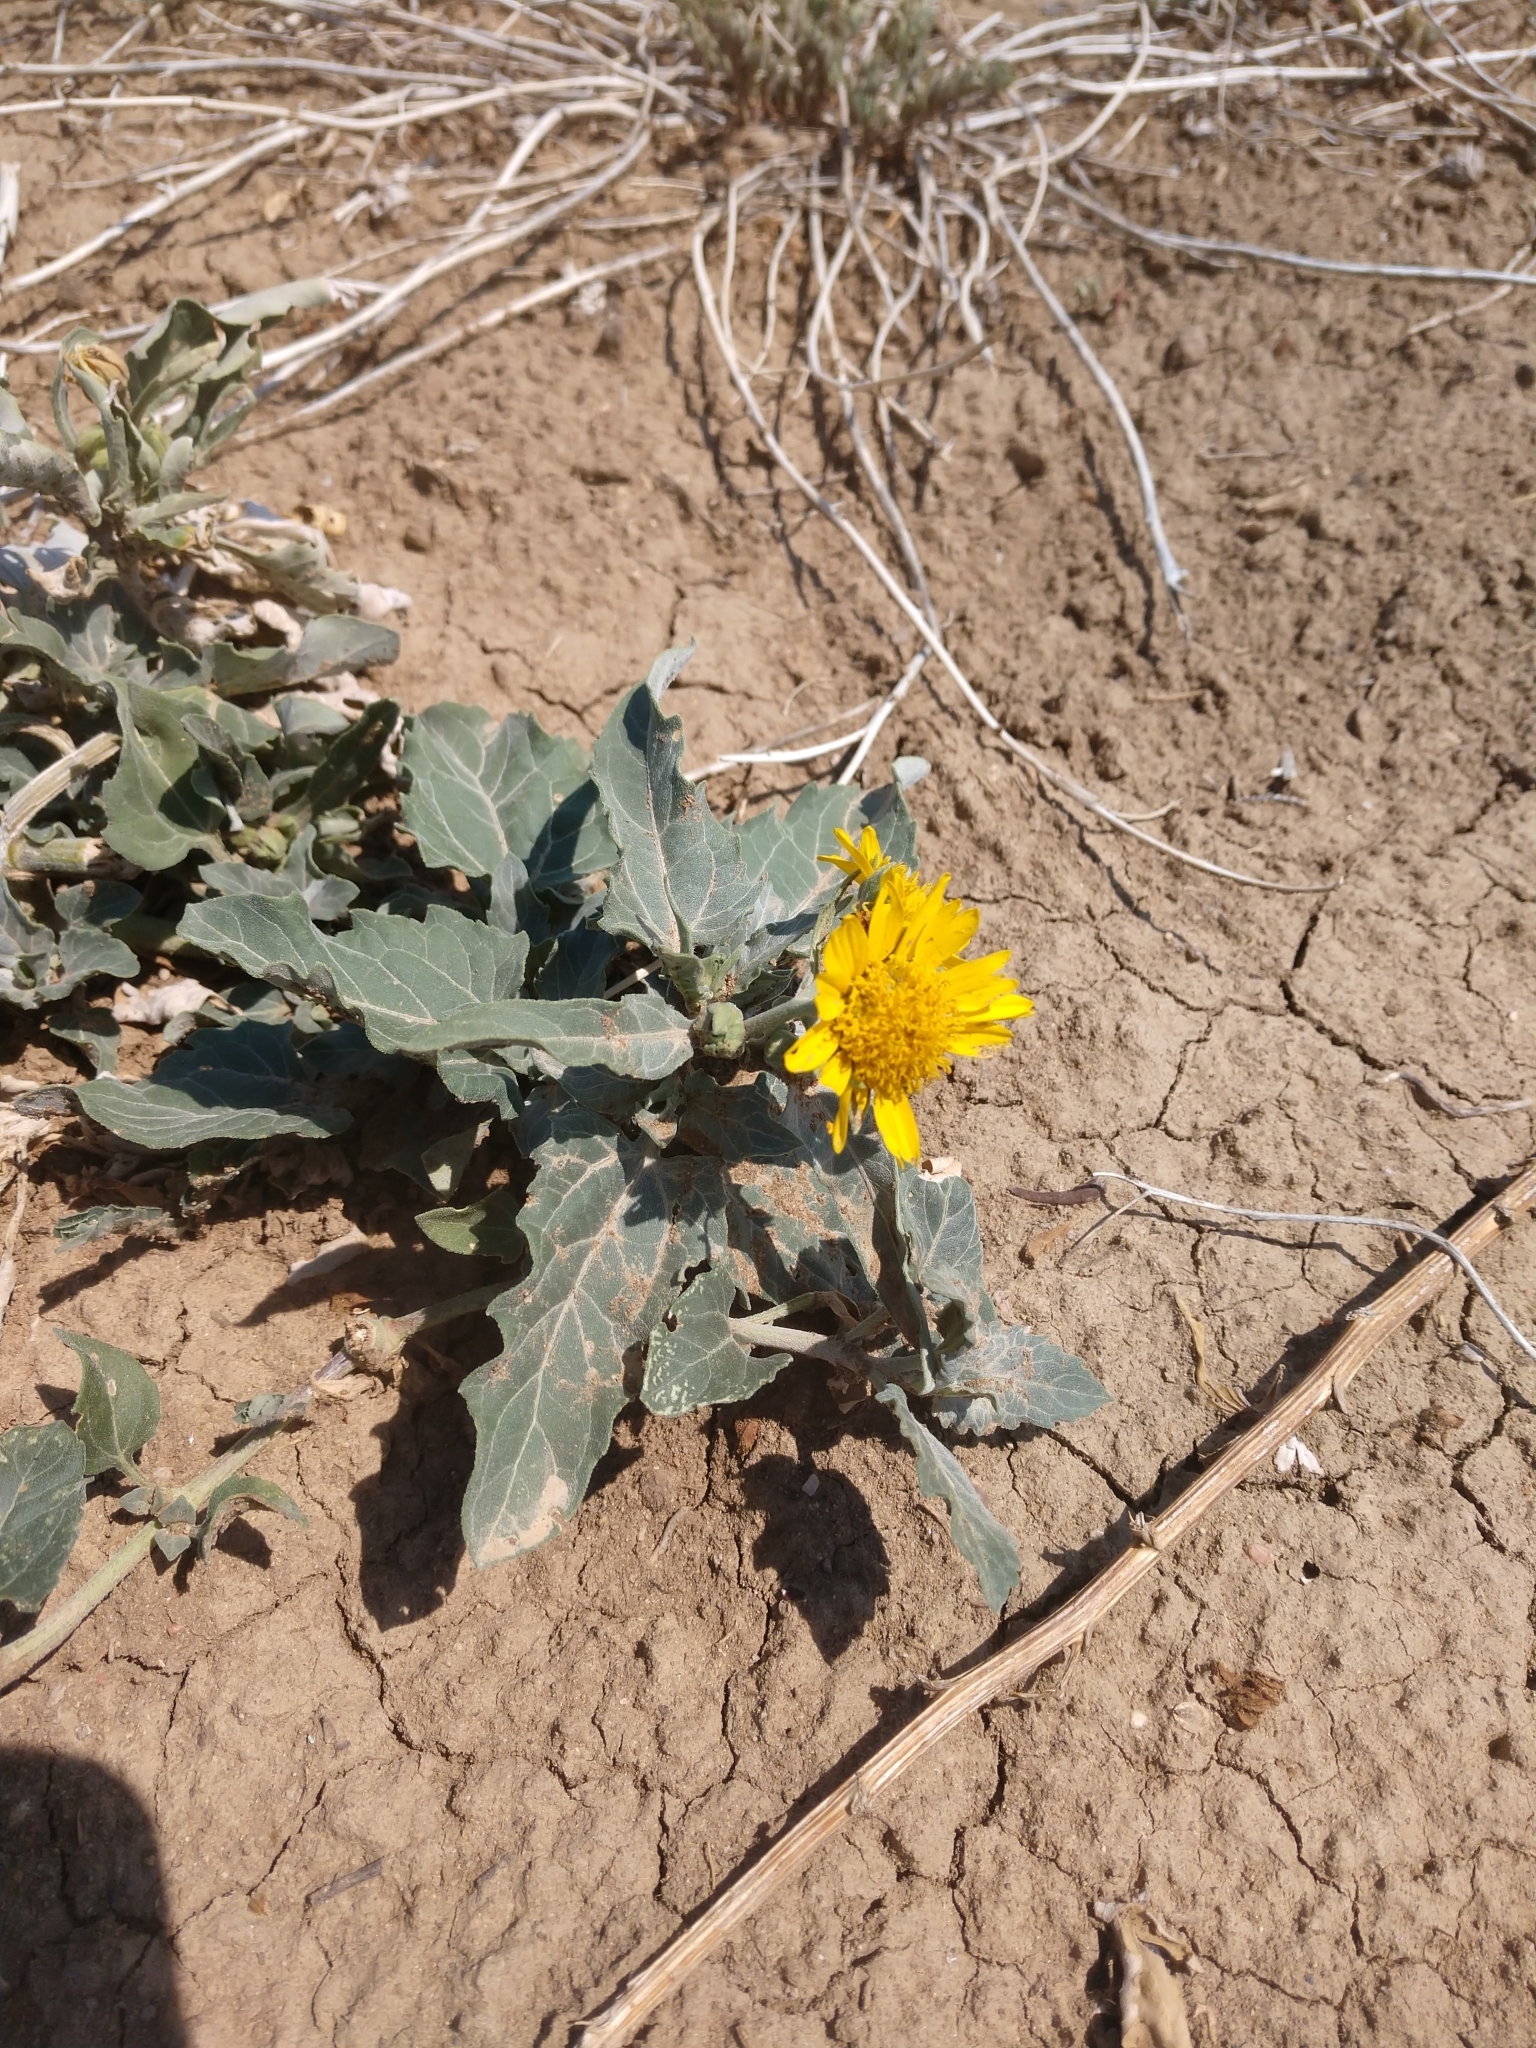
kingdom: Plantae
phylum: Tracheophyta
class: Magnoliopsida
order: Asterales
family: Asteraceae
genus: Verbesina
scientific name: Verbesina encelioides
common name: Golden crownbeard
